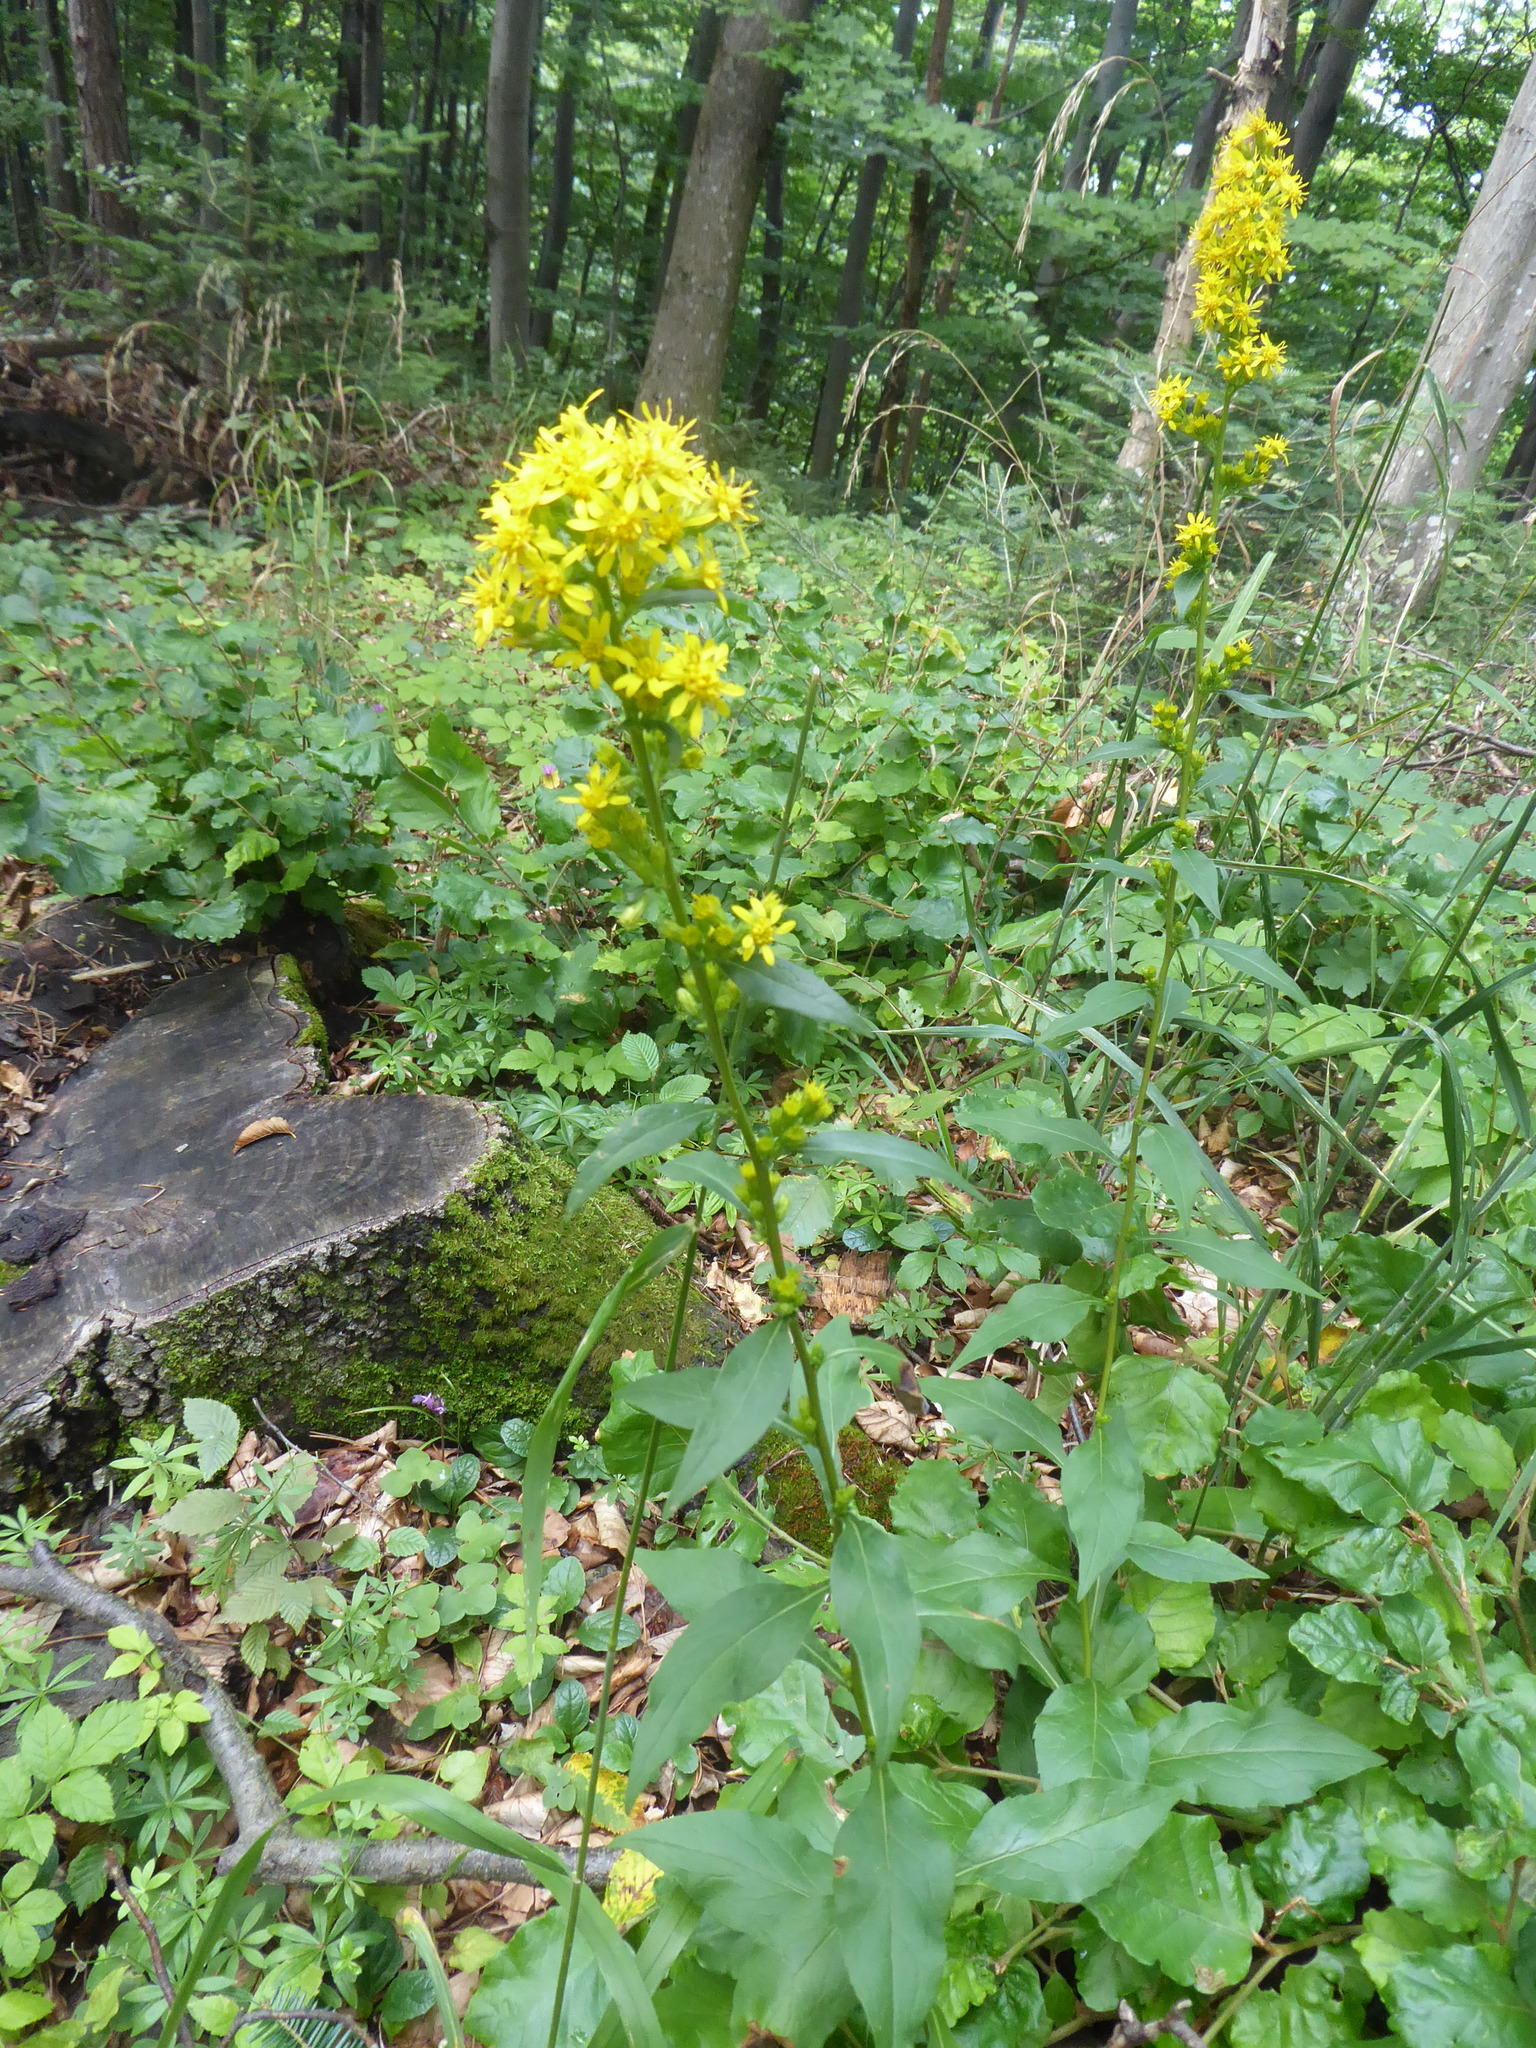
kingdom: Plantae
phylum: Tracheophyta
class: Magnoliopsida
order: Asterales
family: Asteraceae
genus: Solidago
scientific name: Solidago virgaurea
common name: Goldenrod
